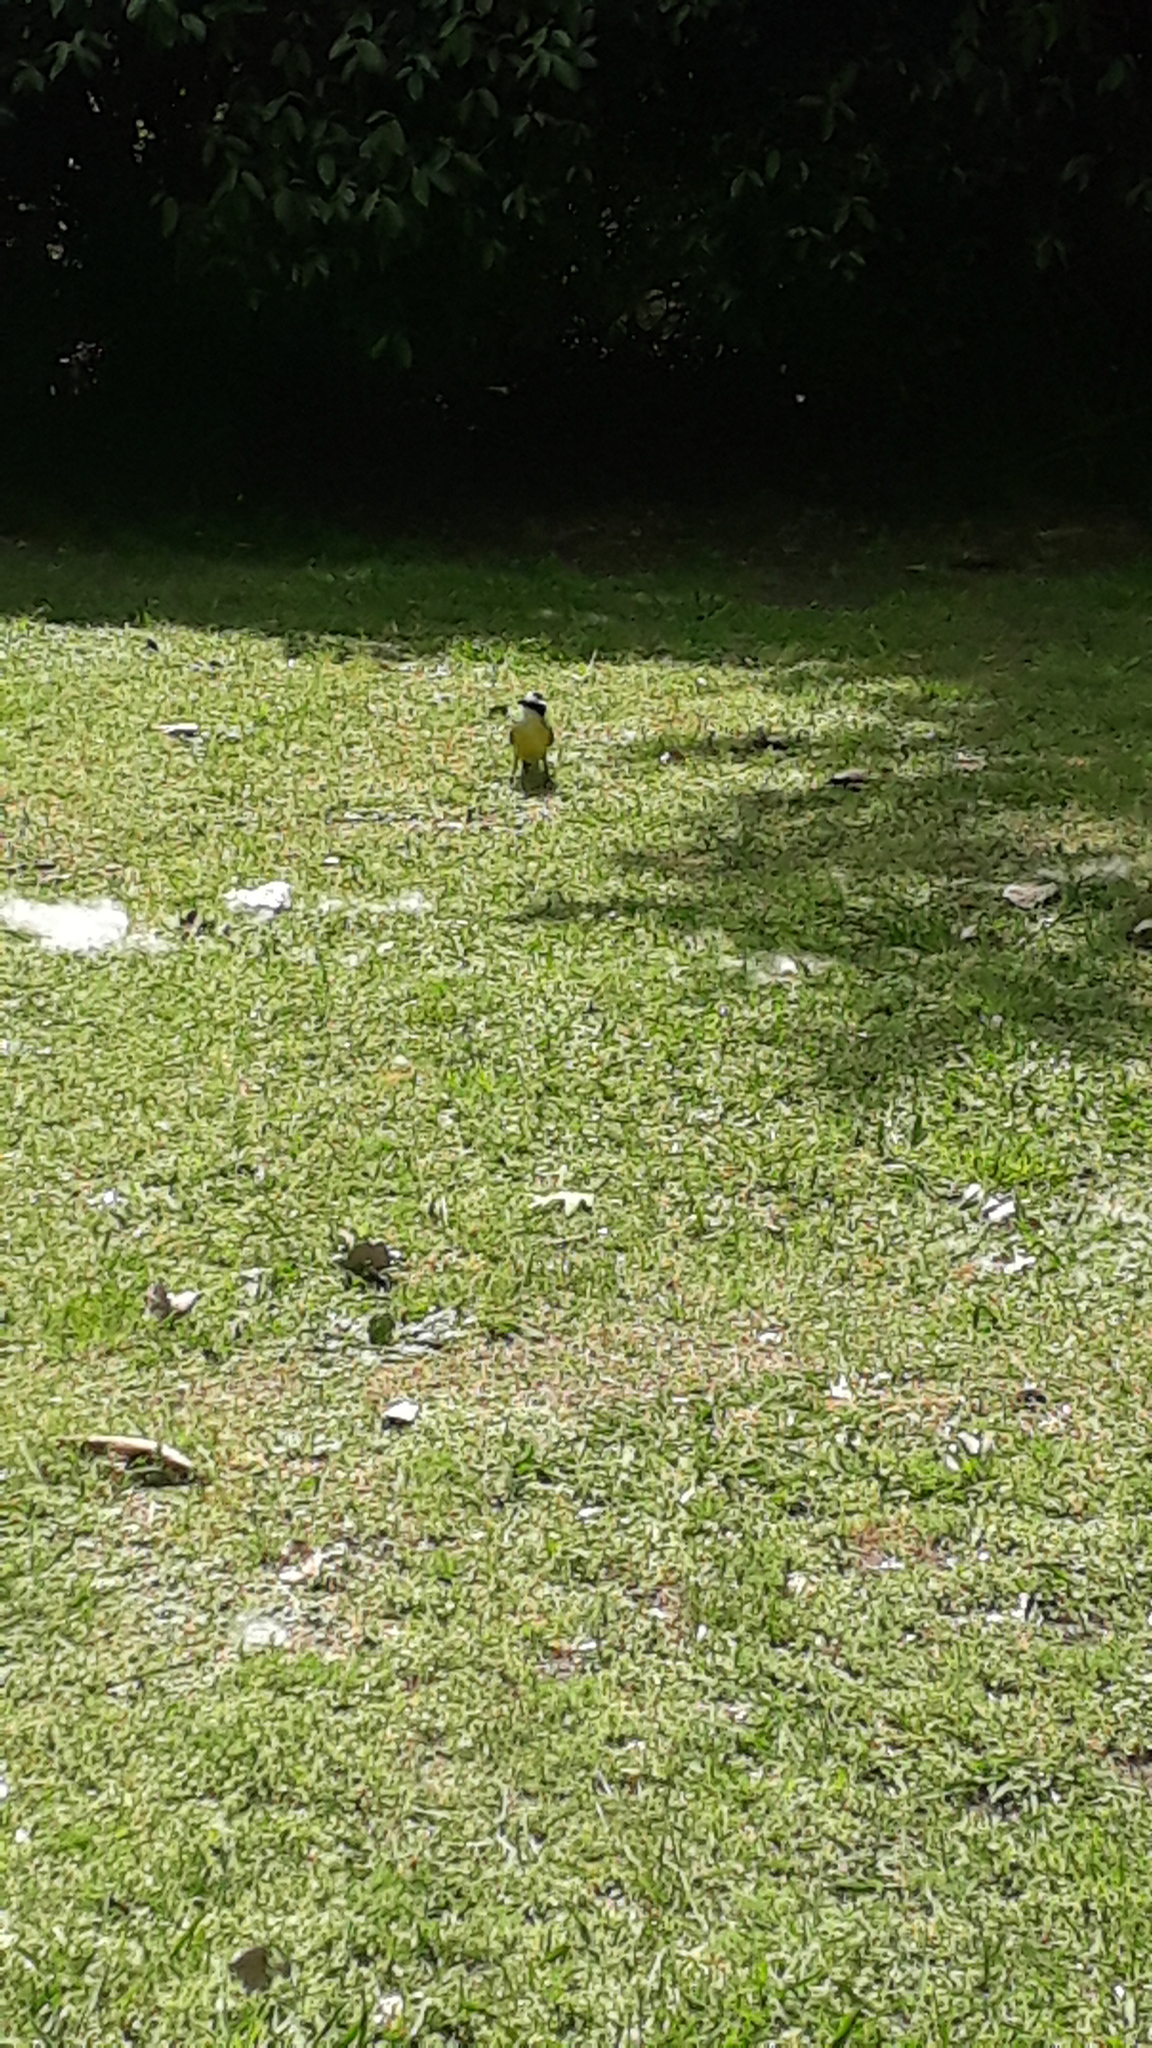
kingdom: Animalia
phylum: Chordata
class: Aves
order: Passeriformes
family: Tyrannidae
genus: Pitangus
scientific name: Pitangus sulphuratus
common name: Great kiskadee
